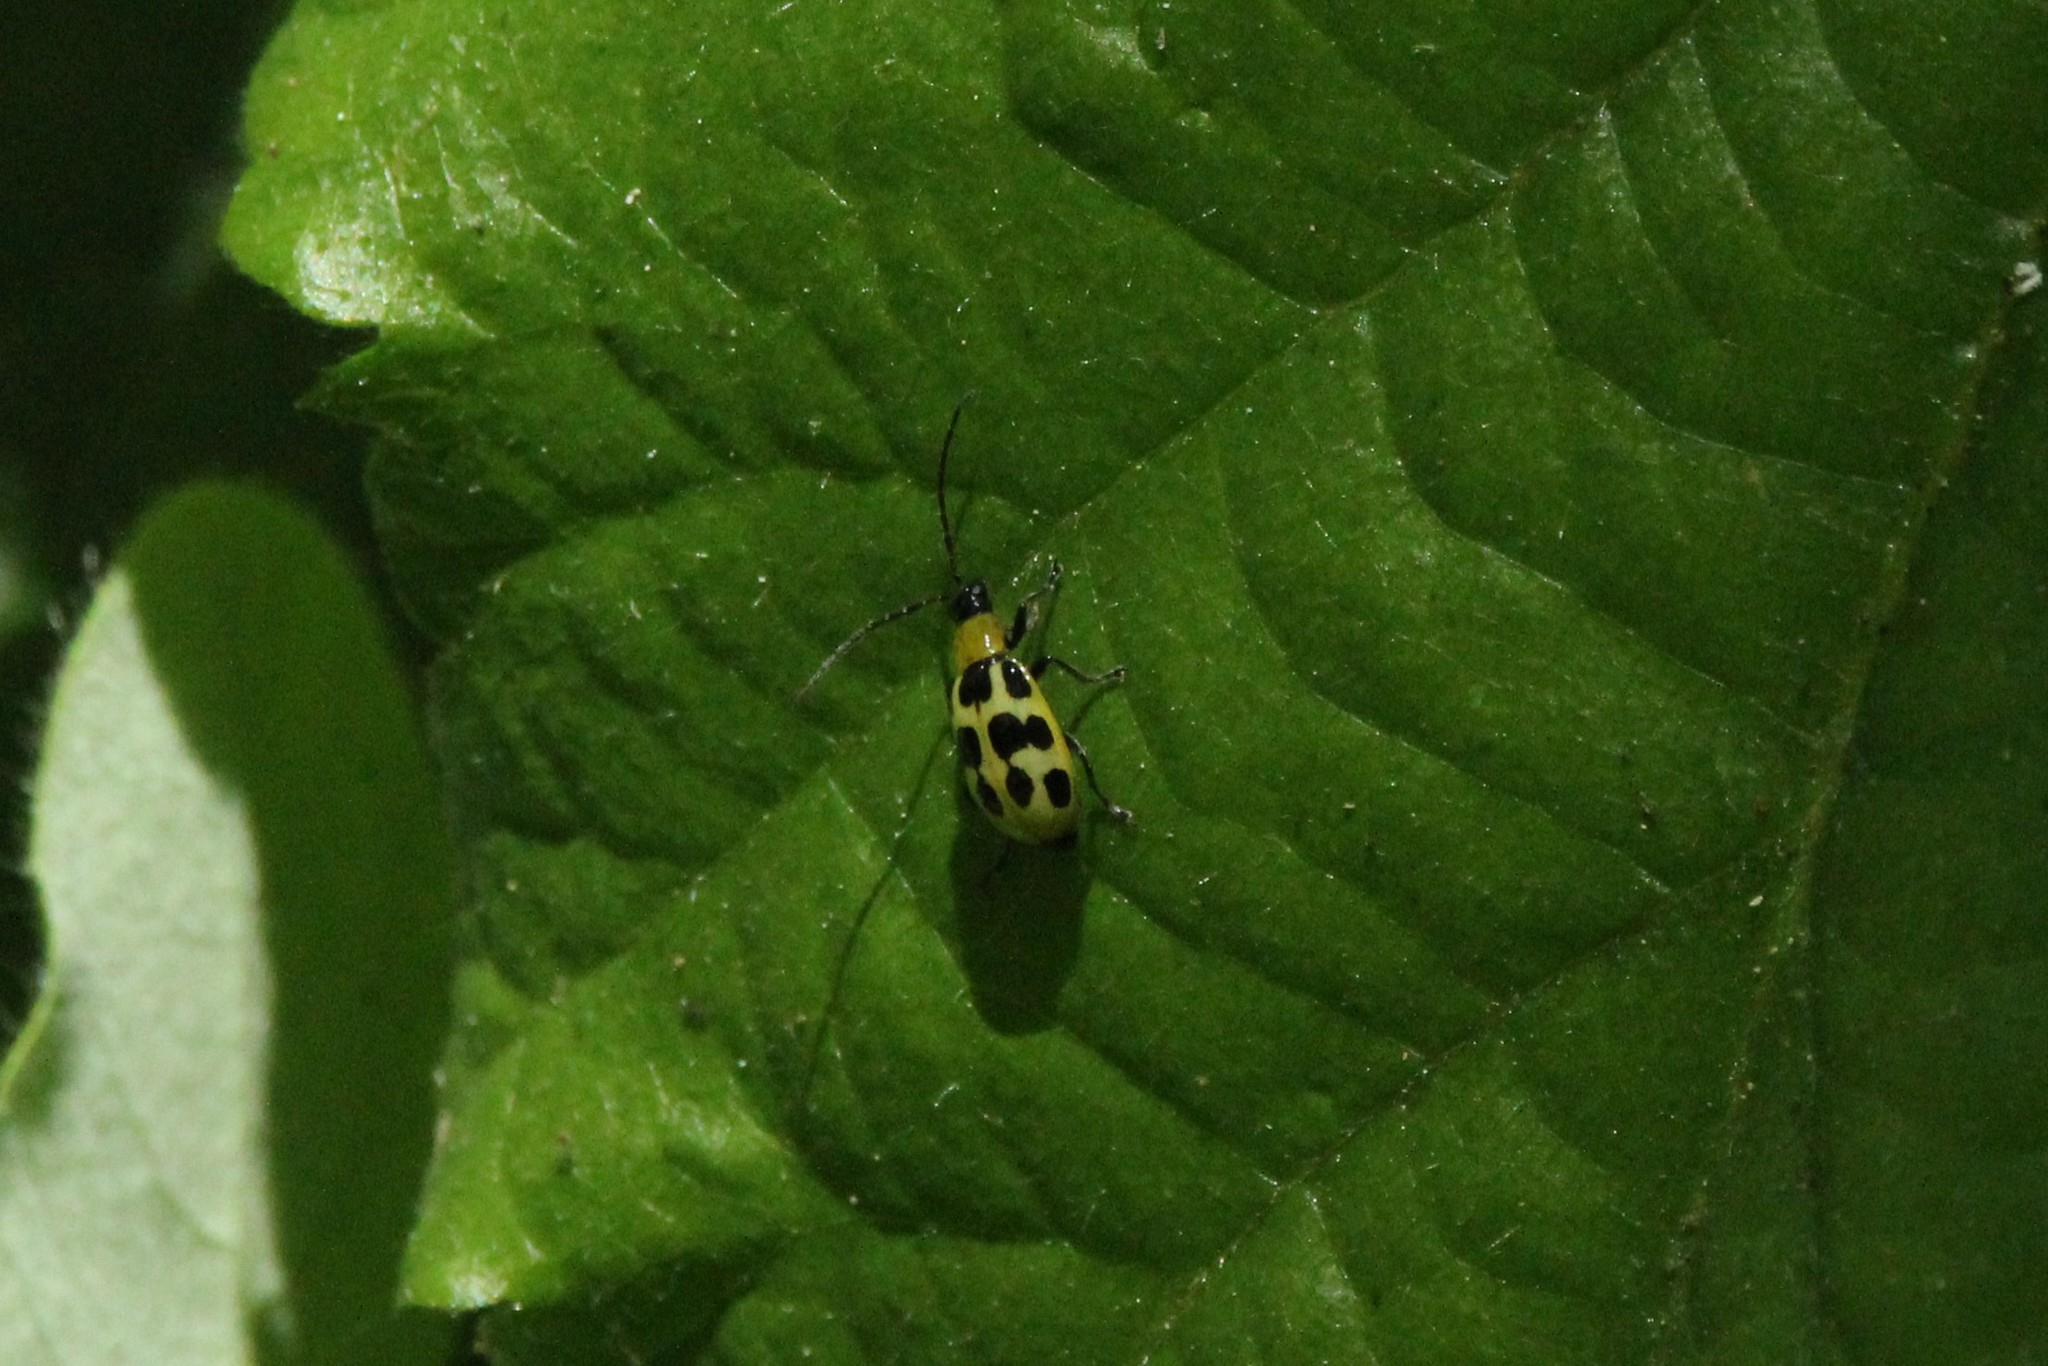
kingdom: Animalia
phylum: Arthropoda
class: Insecta
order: Coleoptera
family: Chrysomelidae
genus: Diabrotica
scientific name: Diabrotica undecimpunctata
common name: Spotted cucumber beetle
